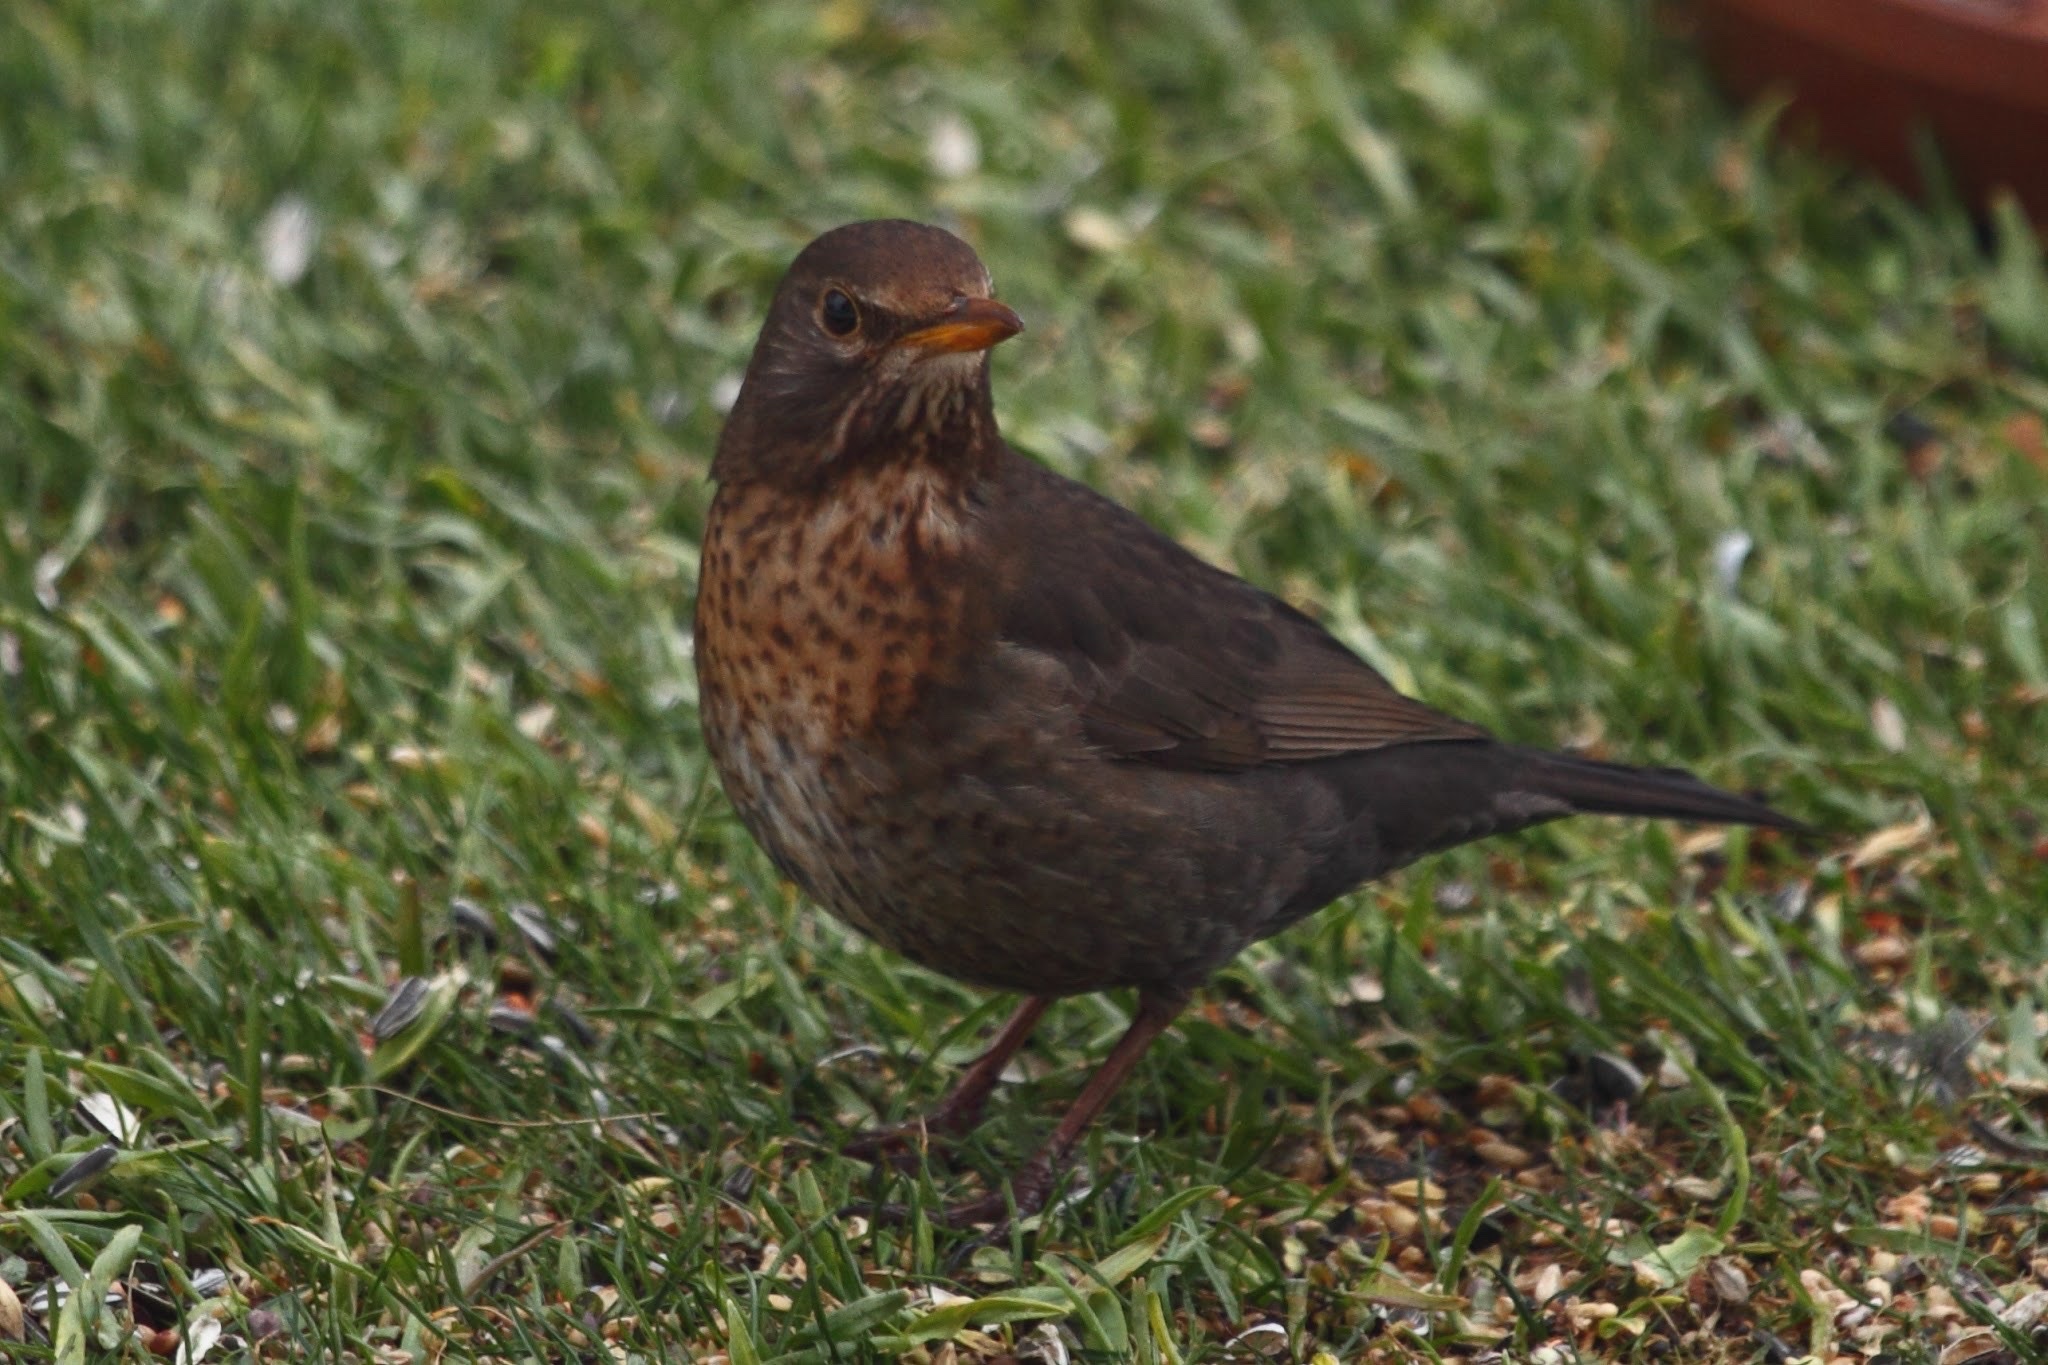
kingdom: Animalia
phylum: Chordata
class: Aves
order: Passeriformes
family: Turdidae
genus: Turdus
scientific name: Turdus merula
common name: Common blackbird
